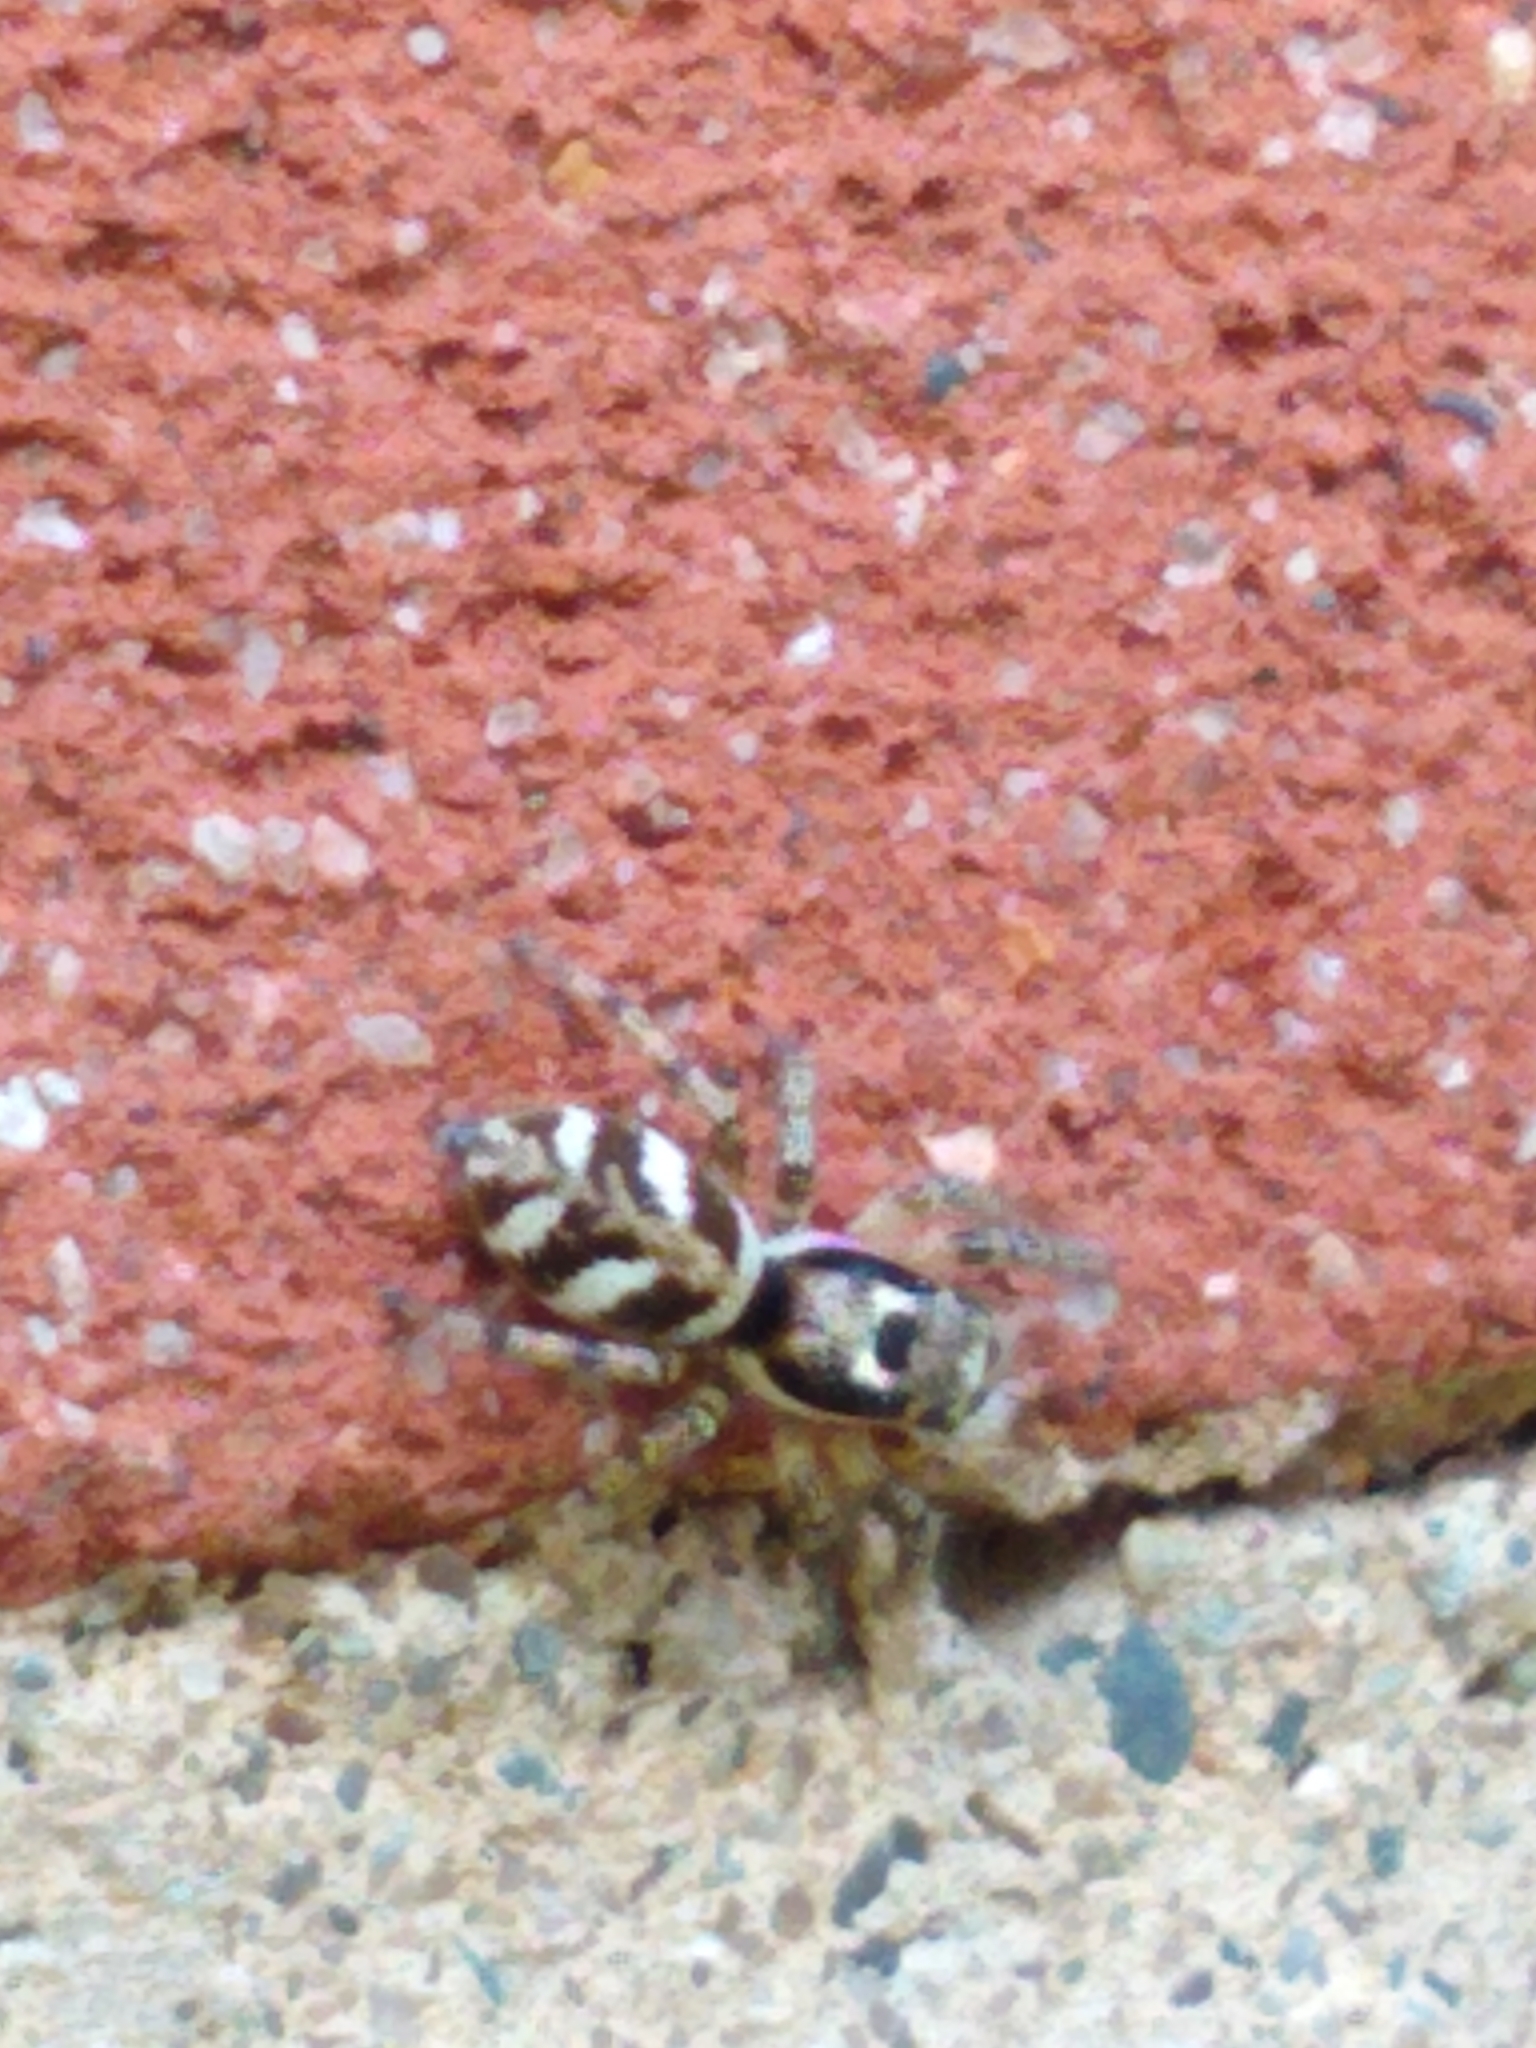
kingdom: Animalia
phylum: Arthropoda
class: Arachnida
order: Araneae
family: Salticidae
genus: Salticus
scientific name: Salticus scenicus
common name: Zebra jumper
